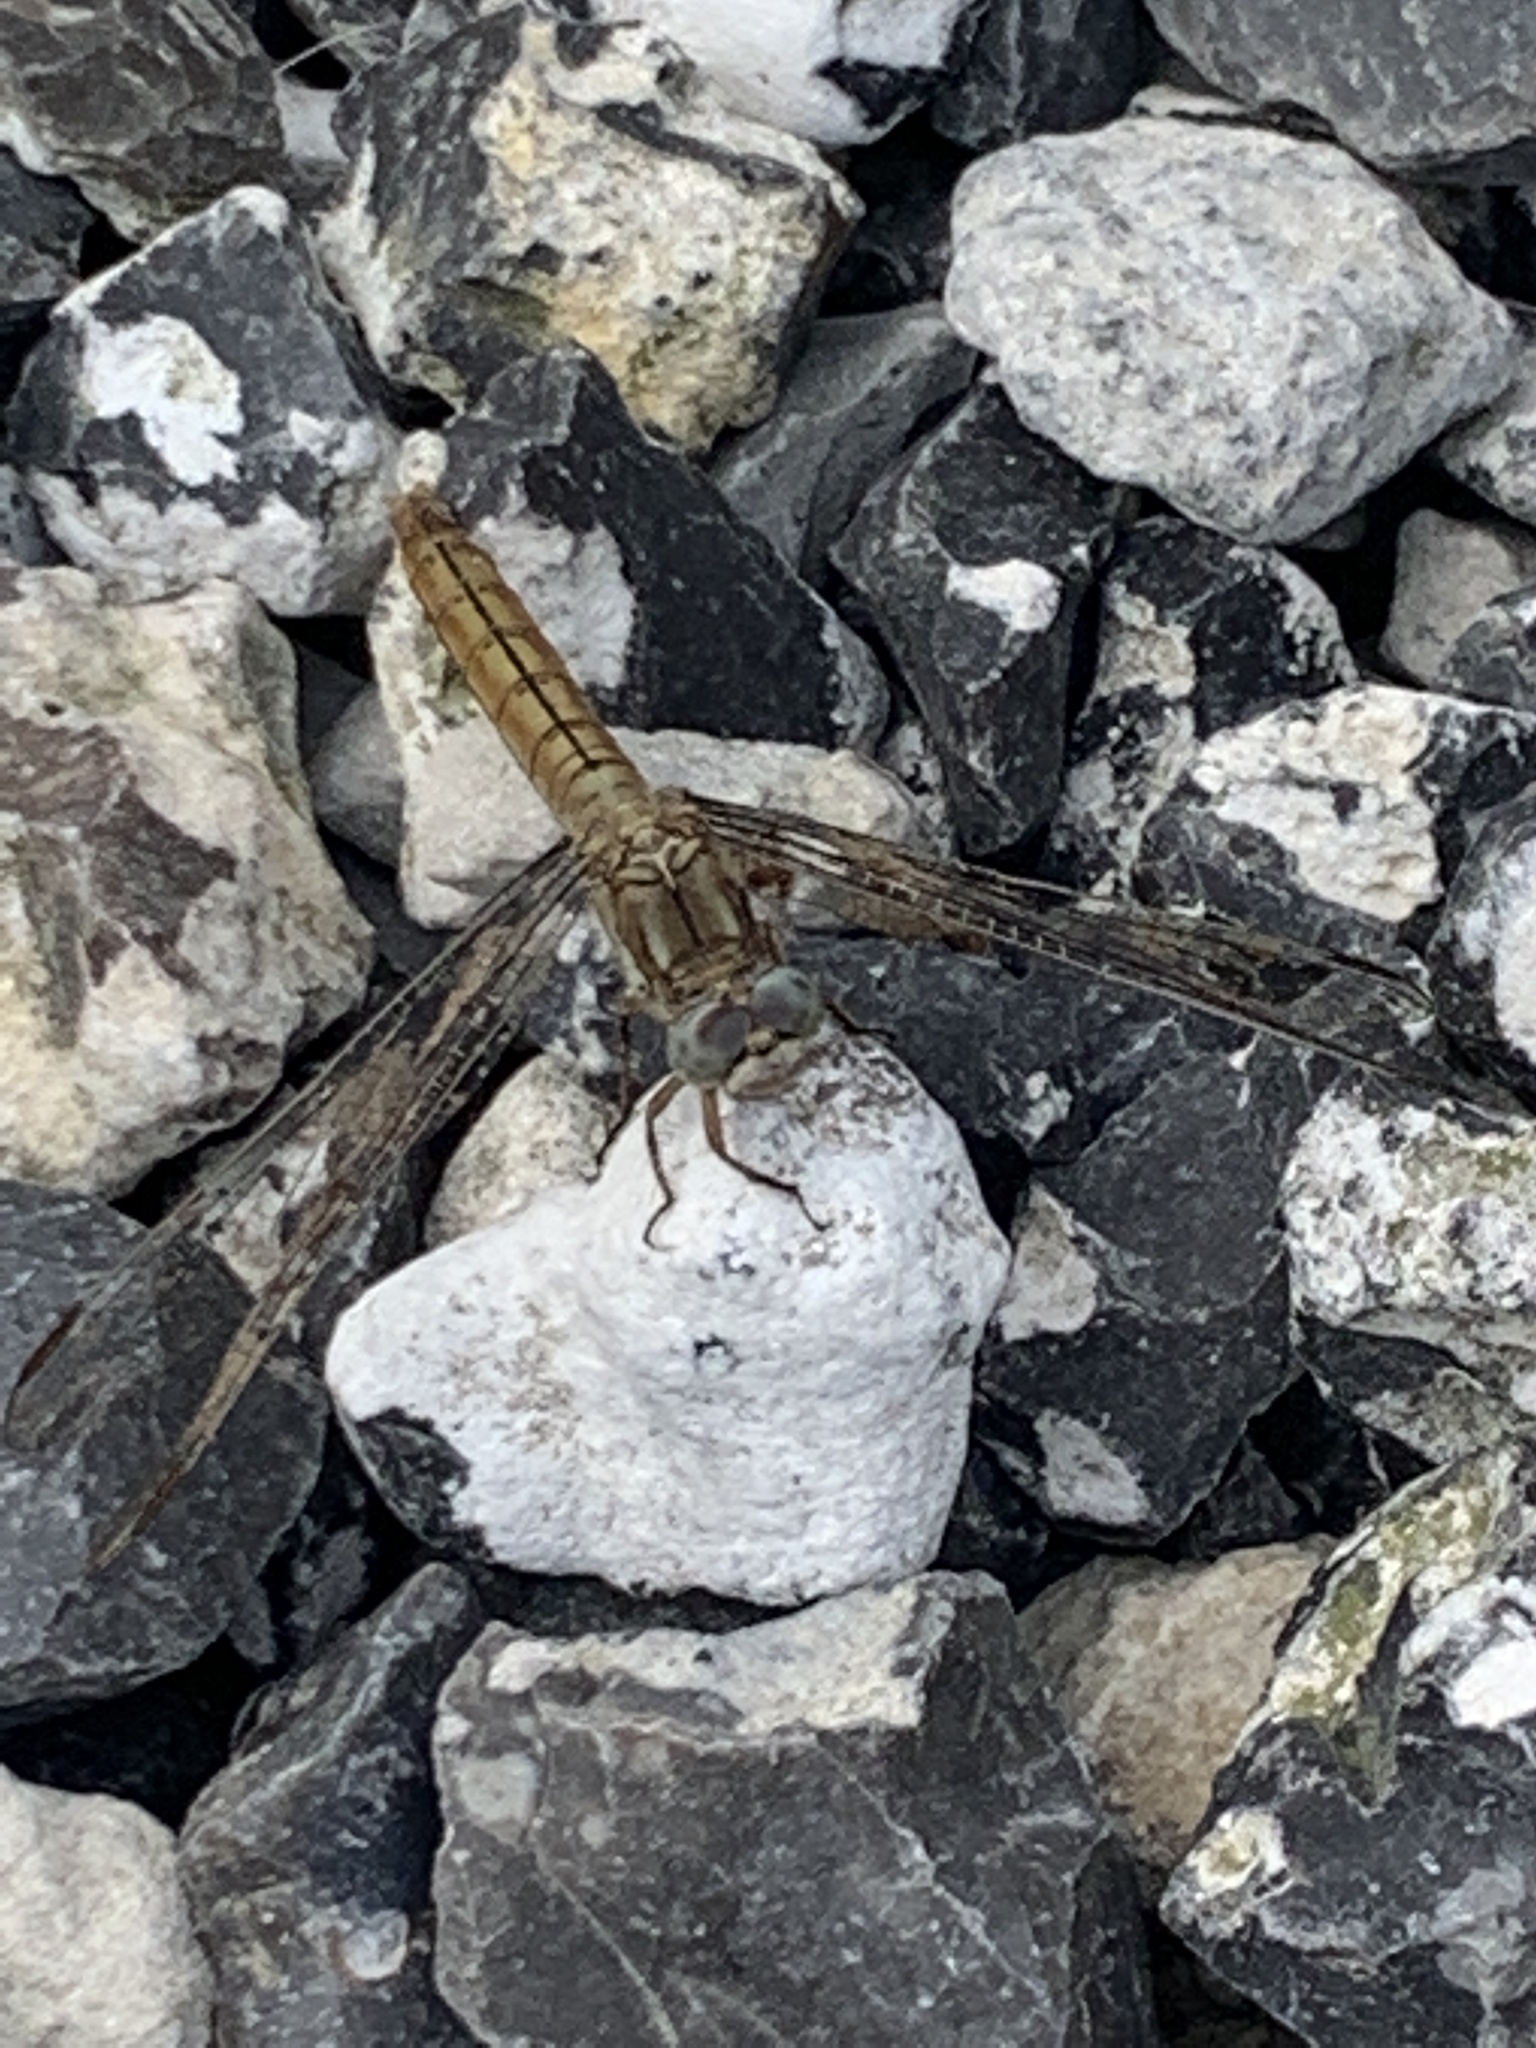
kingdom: Animalia
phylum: Arthropoda
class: Insecta
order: Odonata
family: Libellulidae
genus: Orthetrum
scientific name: Orthetrum brunneum
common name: Southern skimmer
